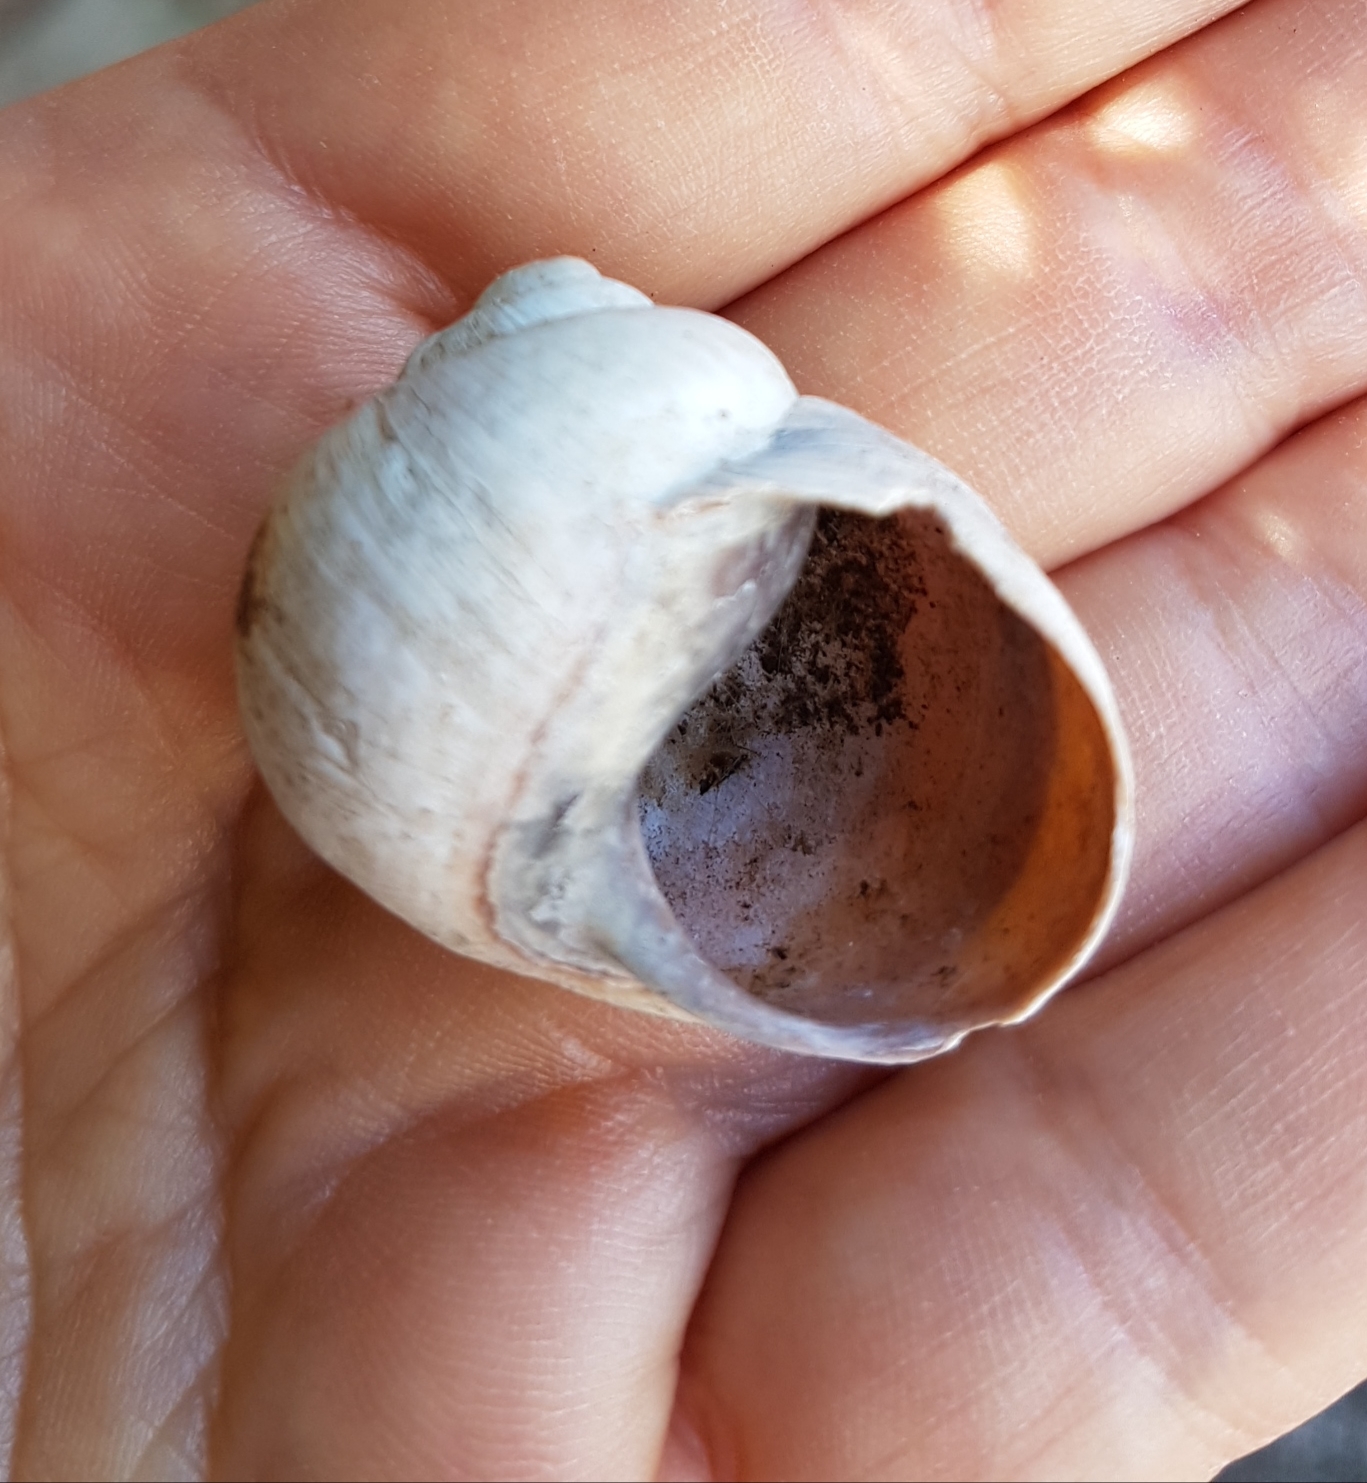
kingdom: Animalia
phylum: Mollusca
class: Gastropoda
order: Stylommatophora
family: Helicidae
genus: Helix
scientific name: Helix melanostoma
